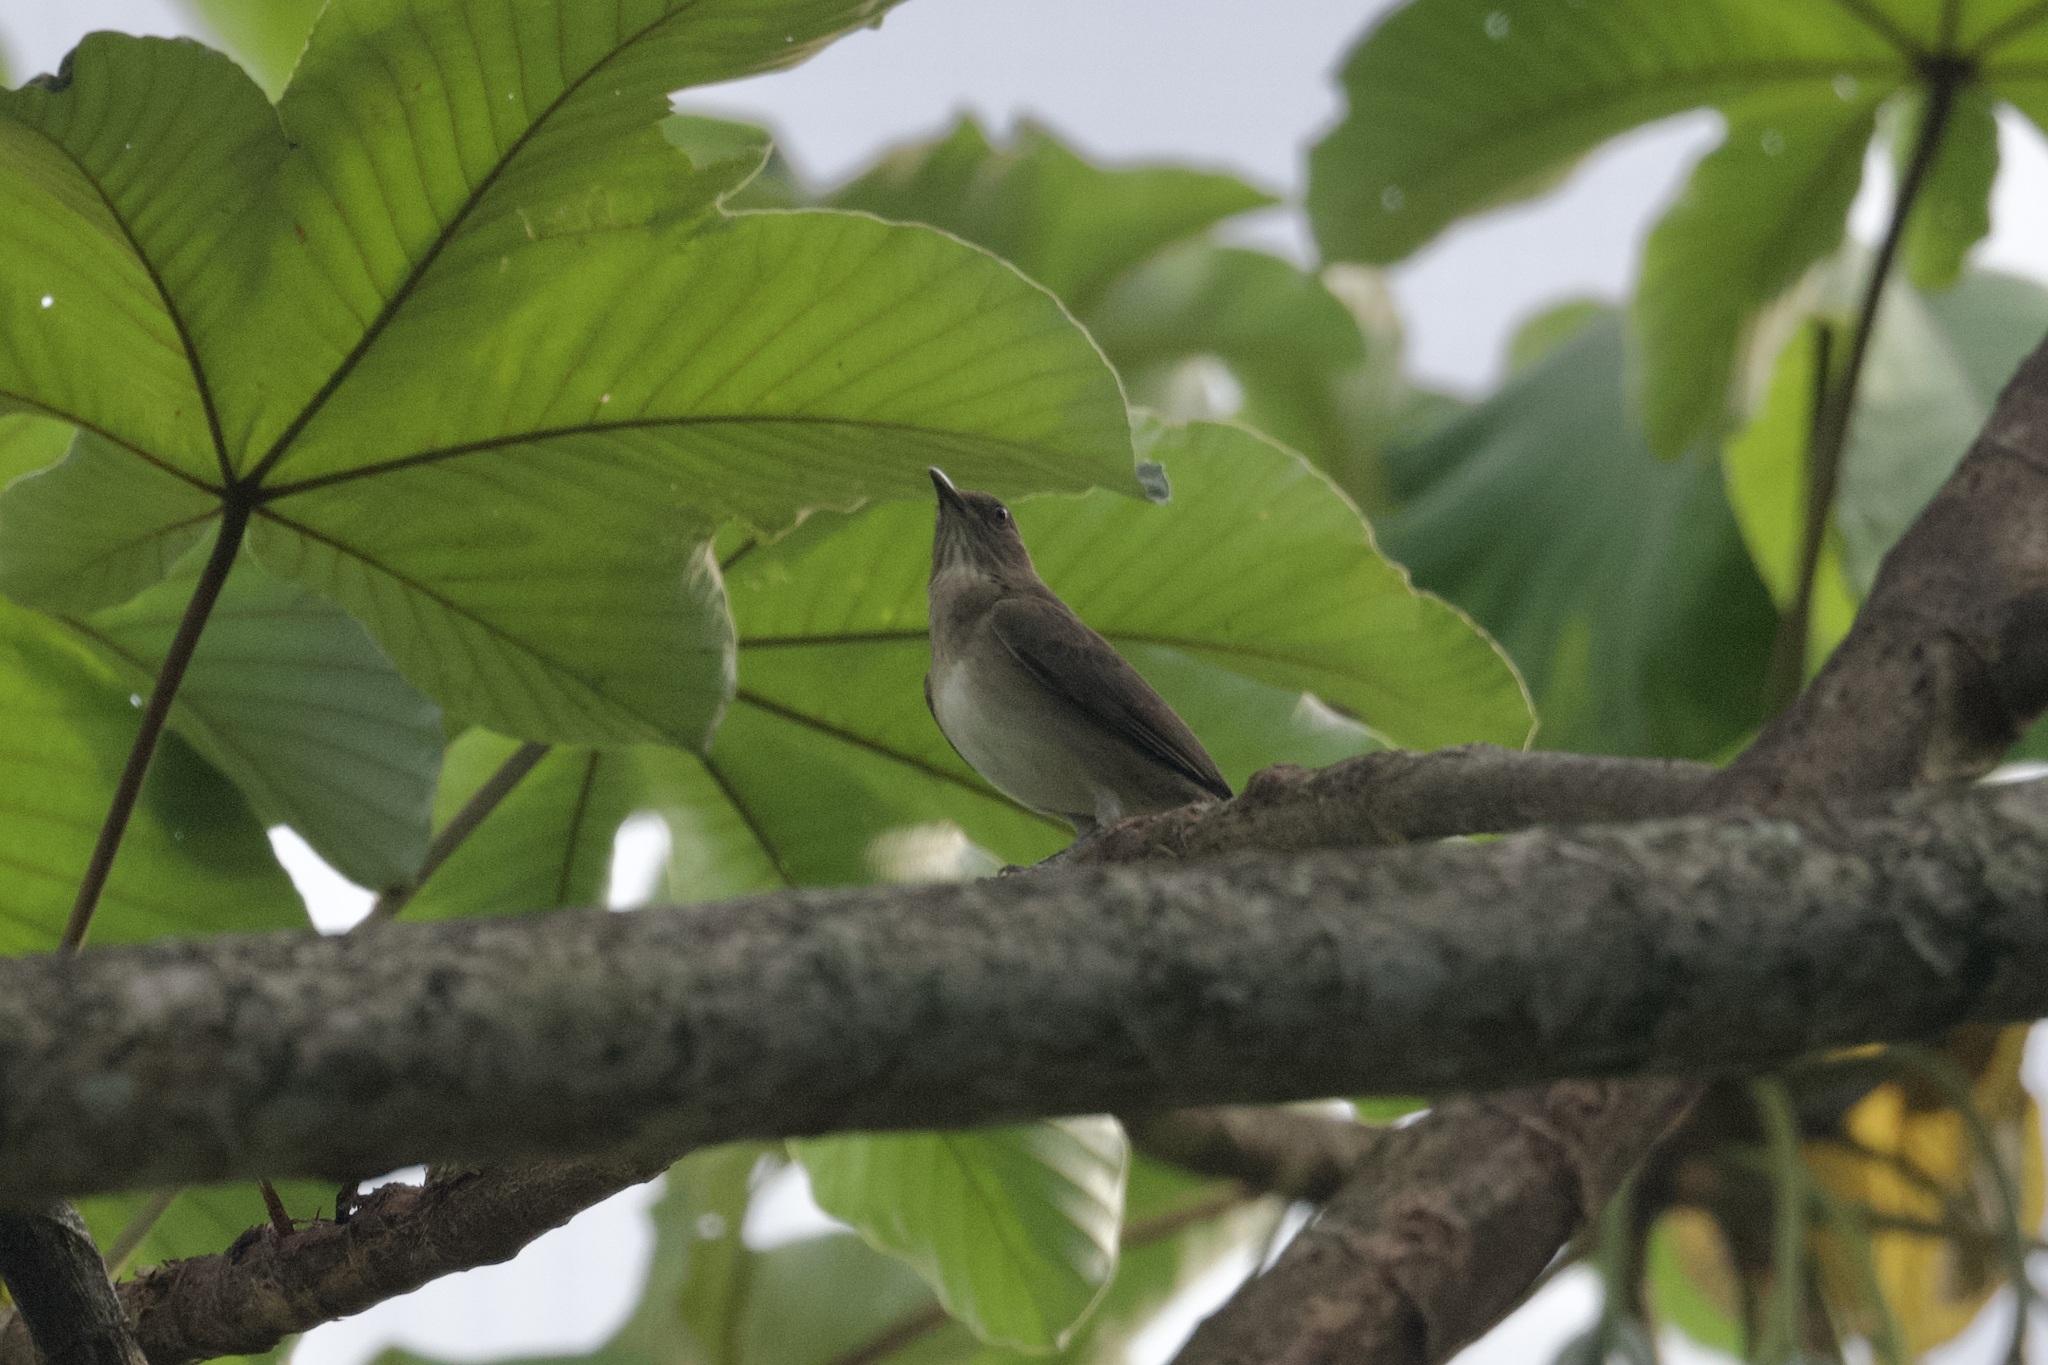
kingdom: Animalia
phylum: Chordata
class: Aves
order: Passeriformes
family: Turdidae
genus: Turdus
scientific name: Turdus ignobilis
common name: Black-billed thrush
